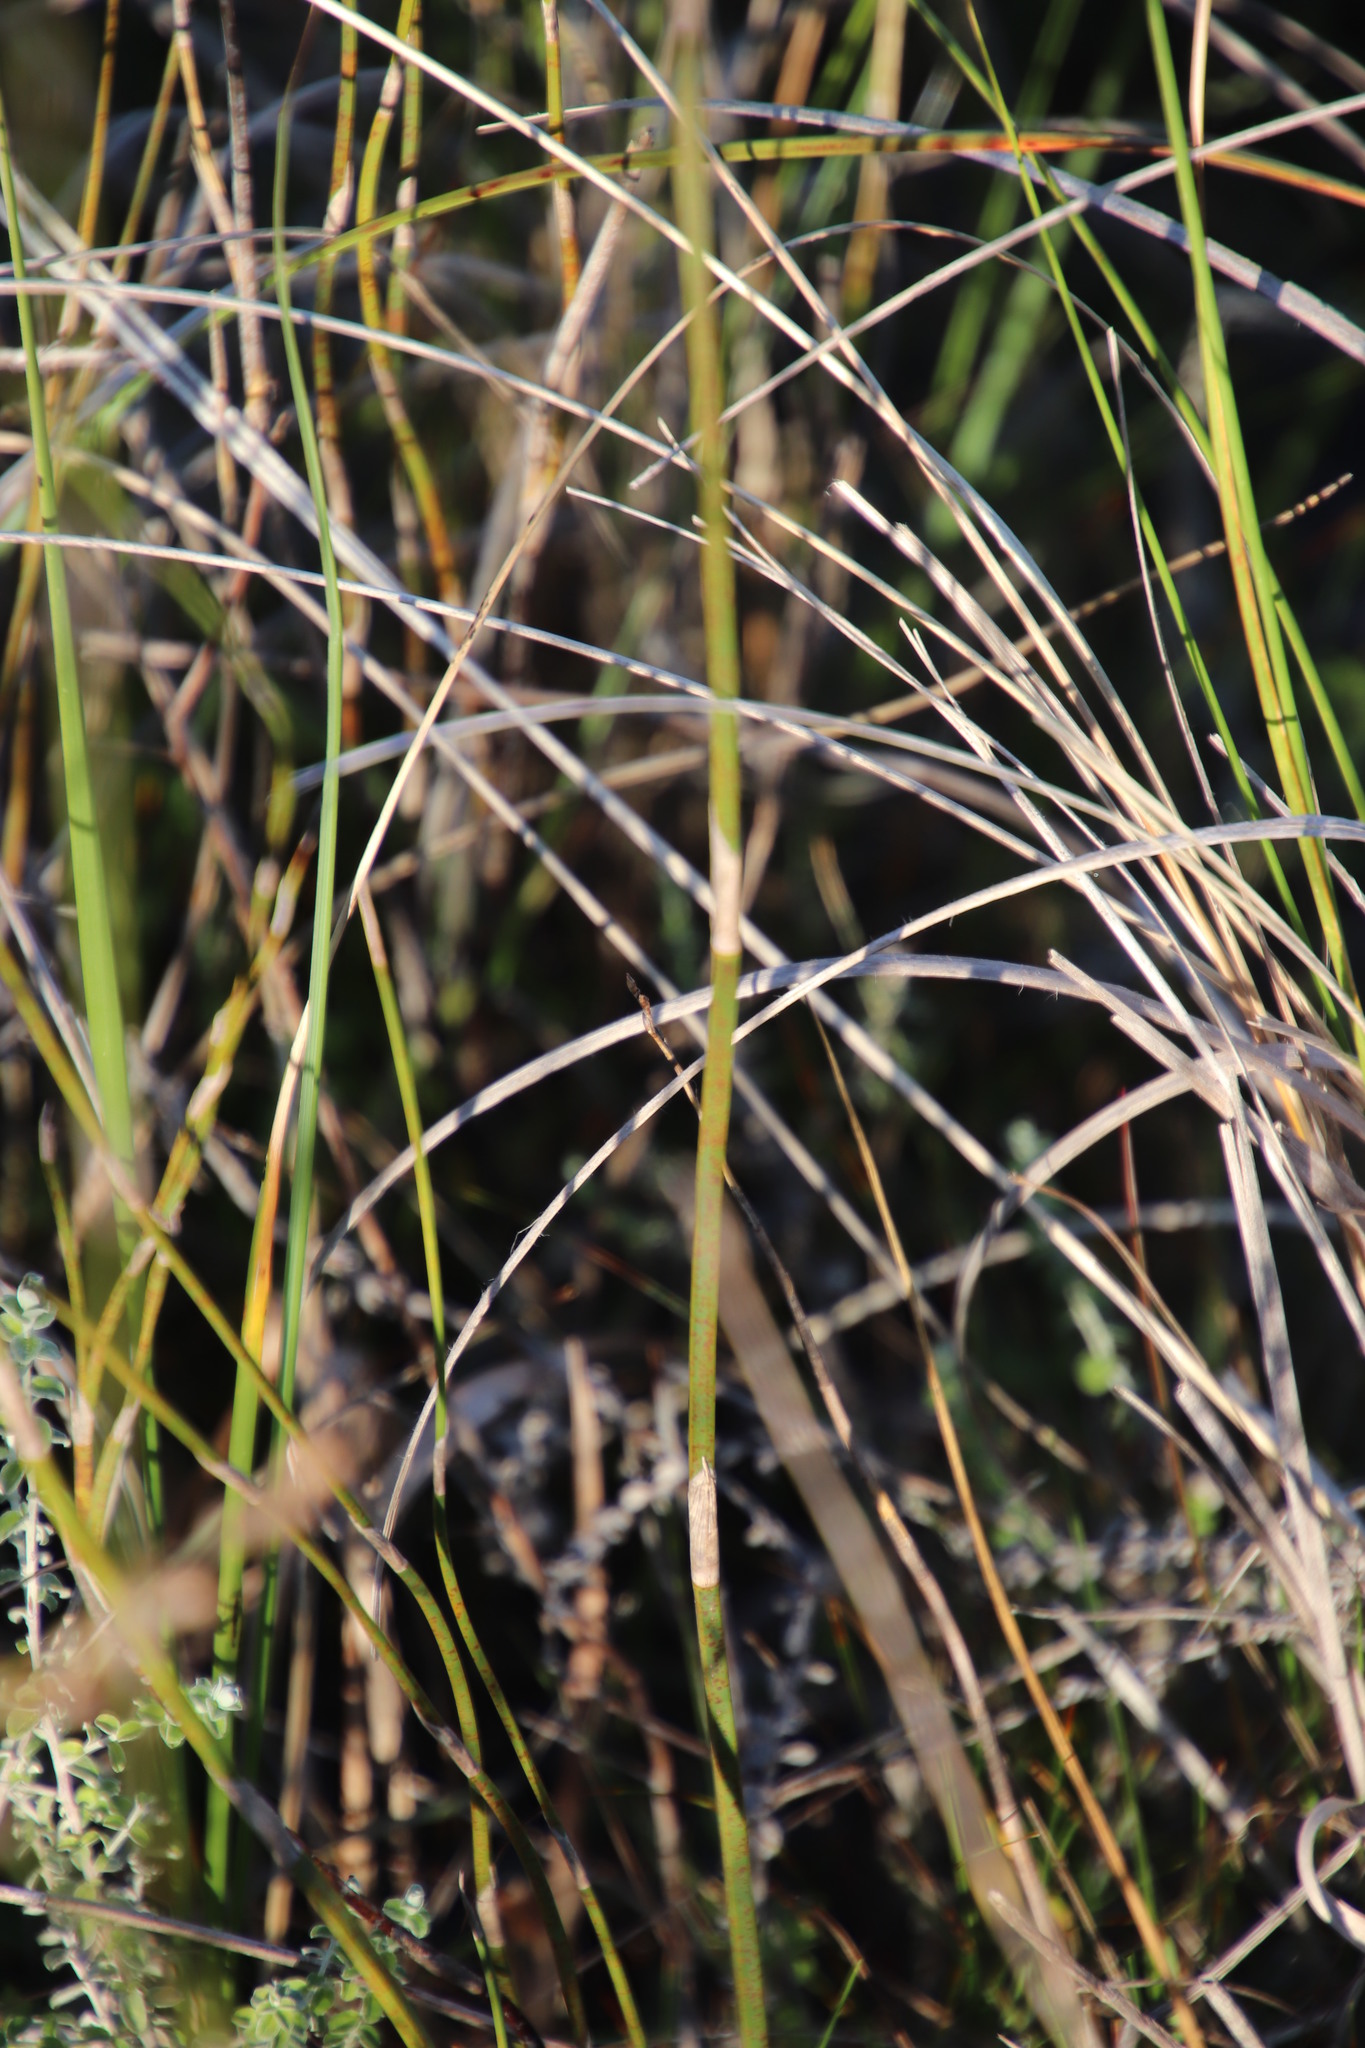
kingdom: Plantae
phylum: Tracheophyta
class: Liliopsida
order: Poales
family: Restionaceae
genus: Restio
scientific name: Restio tetragonus
